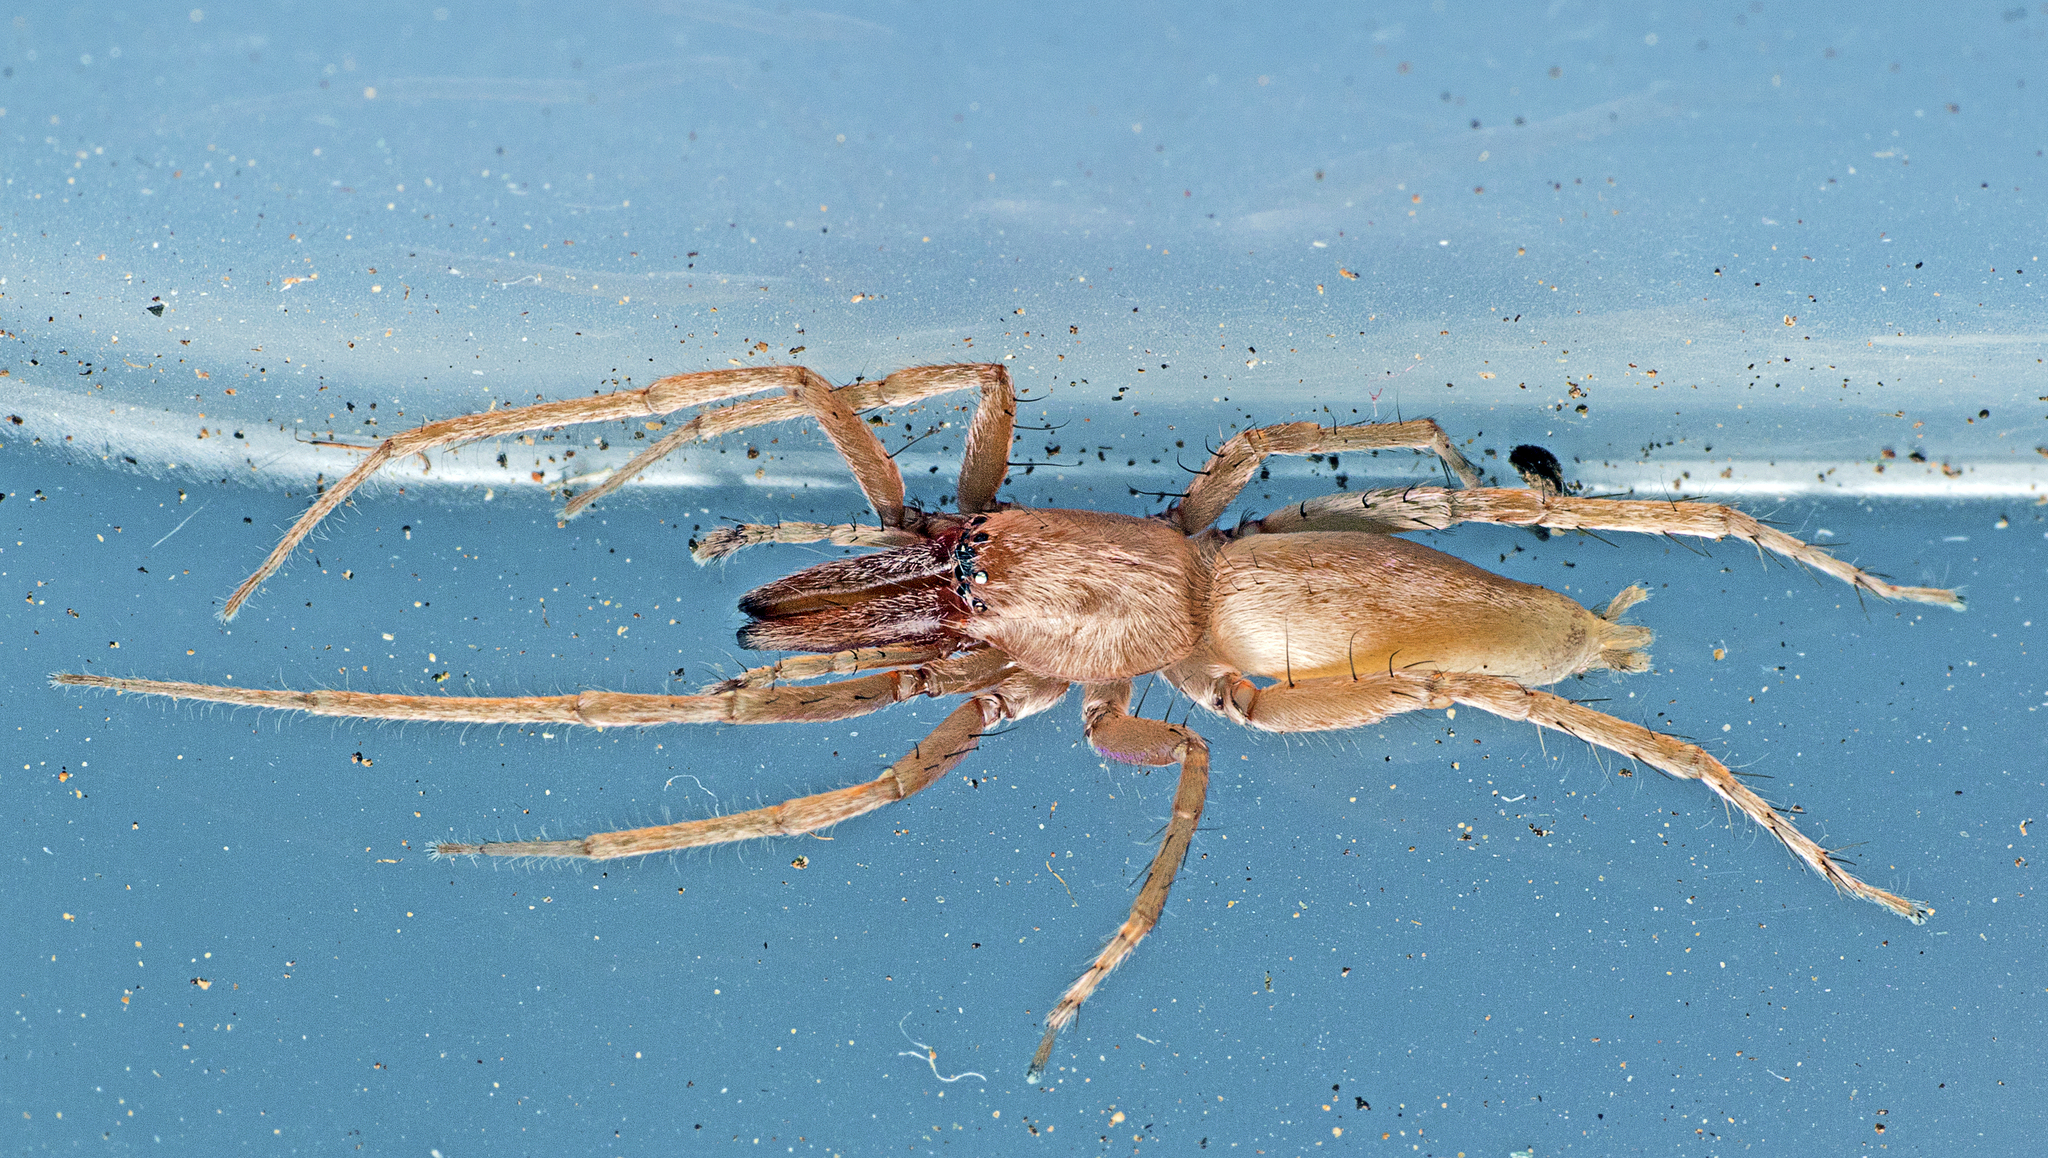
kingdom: Animalia
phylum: Arthropoda
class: Arachnida
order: Araneae
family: Clubionidae
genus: Clubiona
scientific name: Clubiona cycladata
